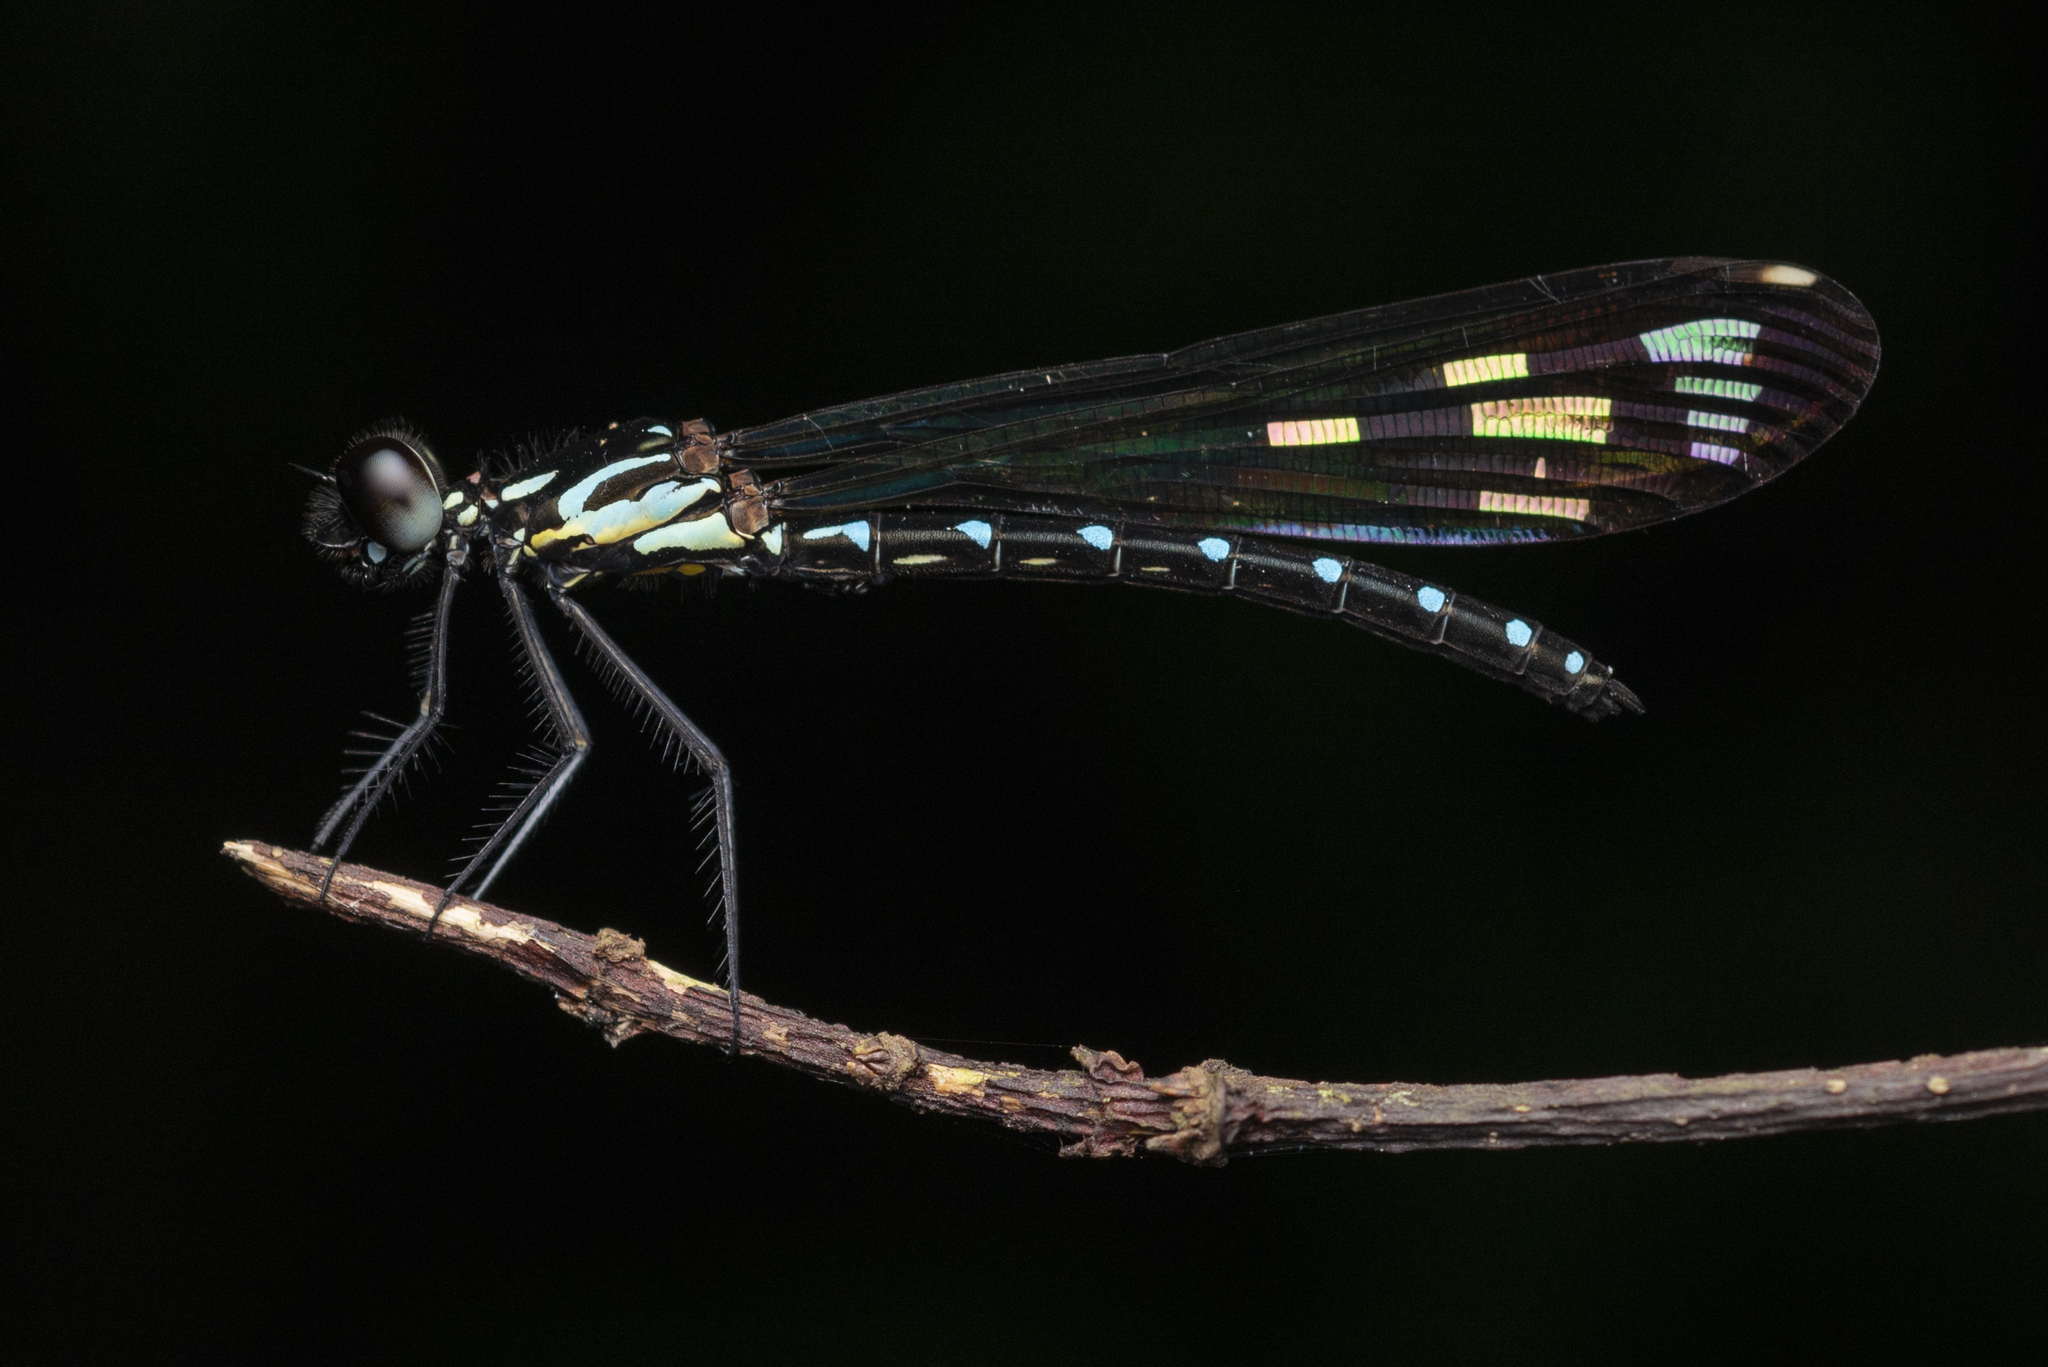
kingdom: Animalia
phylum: Arthropoda
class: Insecta
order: Odonata
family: Chlorocyphidae
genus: Heliocypha
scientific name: Heliocypha perforata
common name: Common blue jewel
